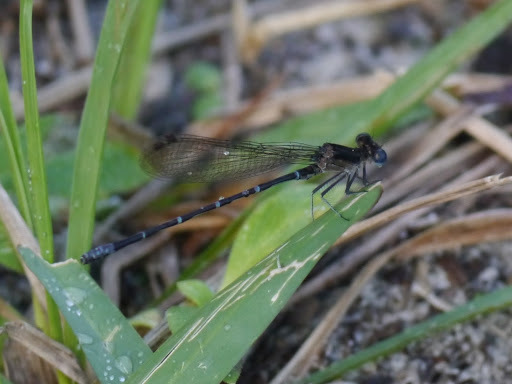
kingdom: Animalia
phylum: Arthropoda
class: Insecta
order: Odonata
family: Coenagrionidae
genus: Argia
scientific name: Argia sedula
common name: Blue-ringed dancer
